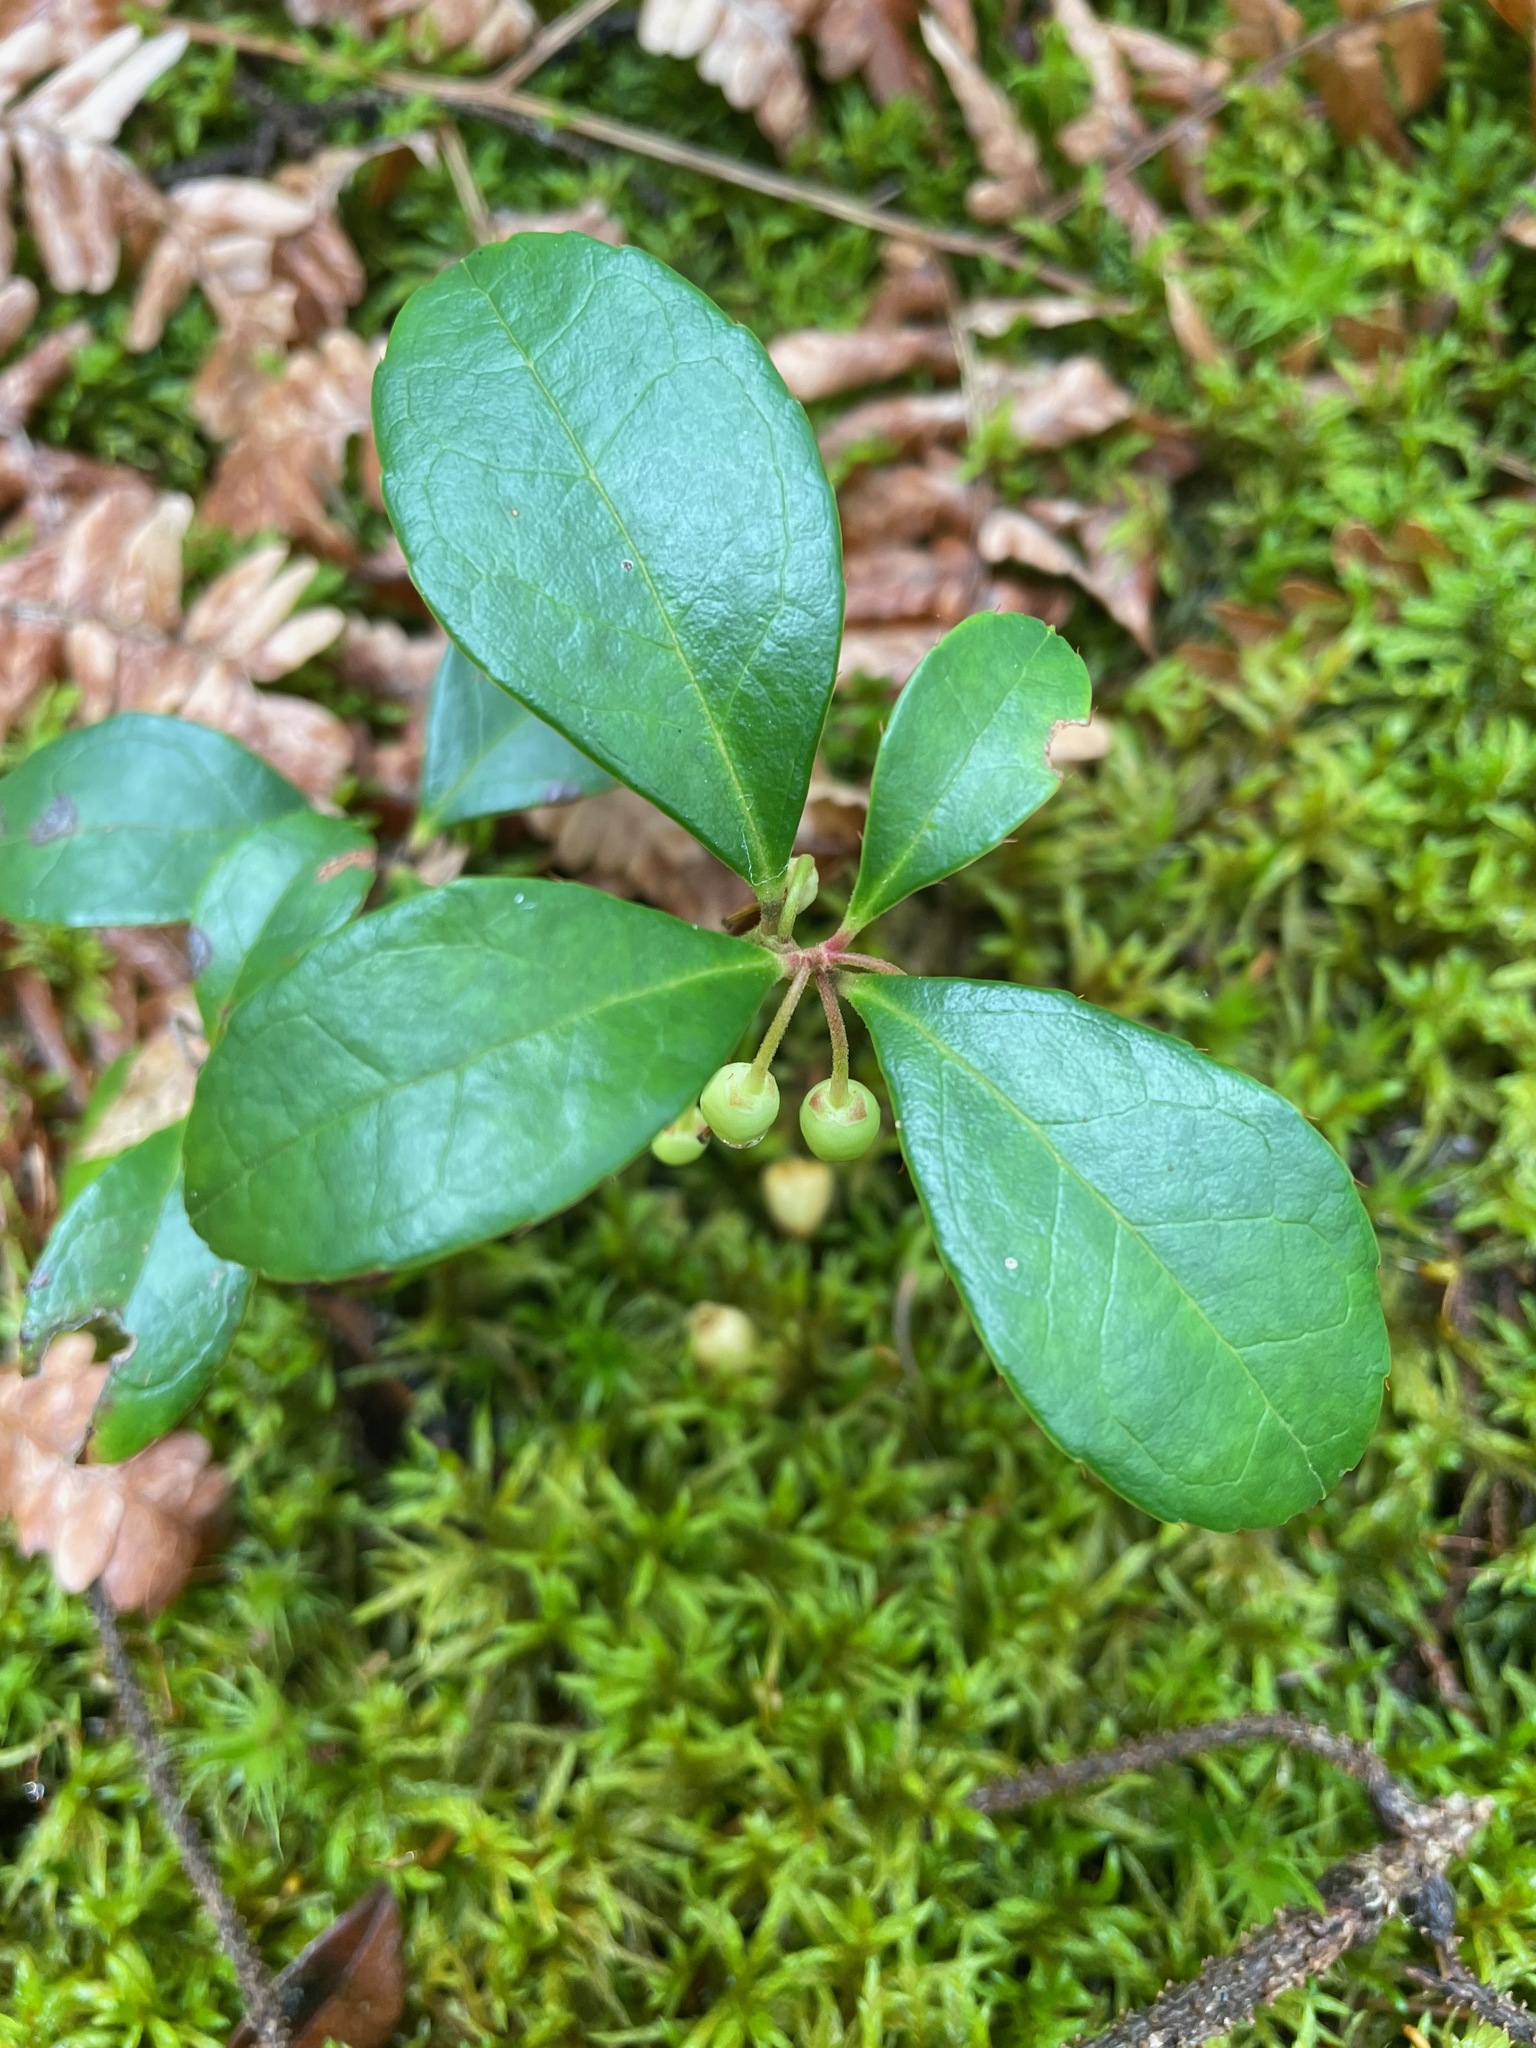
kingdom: Plantae
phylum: Tracheophyta
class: Magnoliopsida
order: Ericales
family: Ericaceae
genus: Gaultheria
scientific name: Gaultheria procumbens
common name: Checkerberry
